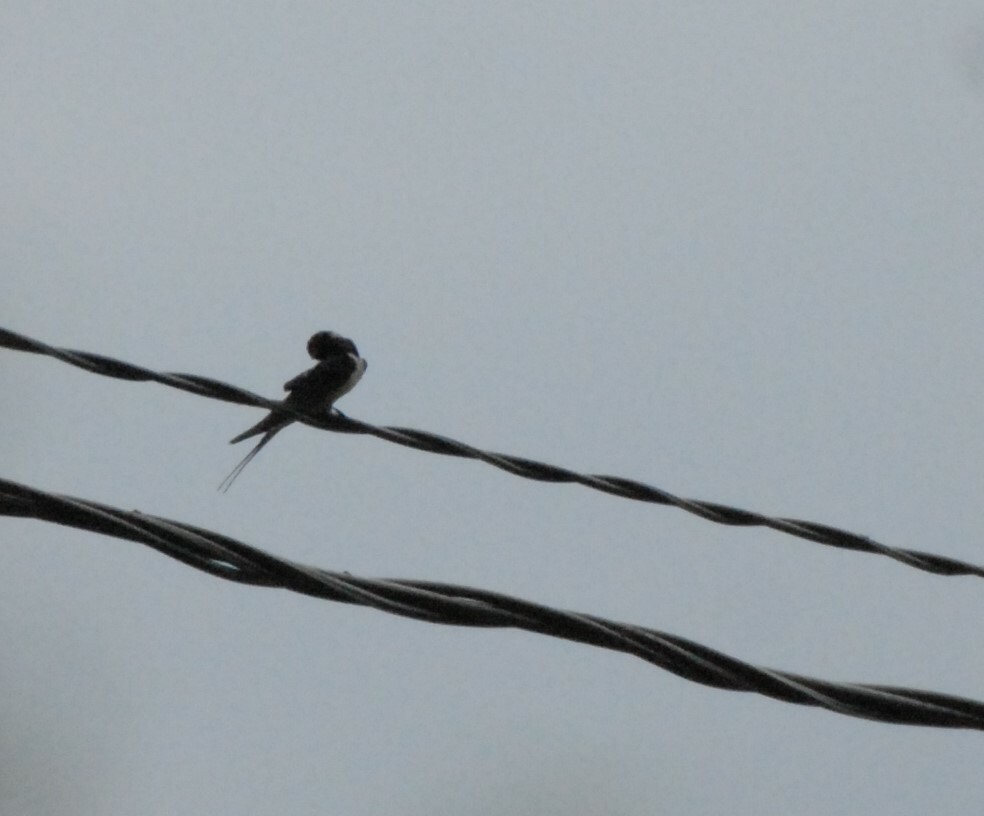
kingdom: Animalia
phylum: Chordata
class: Aves
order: Passeriformes
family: Hirundinidae
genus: Hirundo
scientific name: Hirundo rustica
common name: Barn swallow
